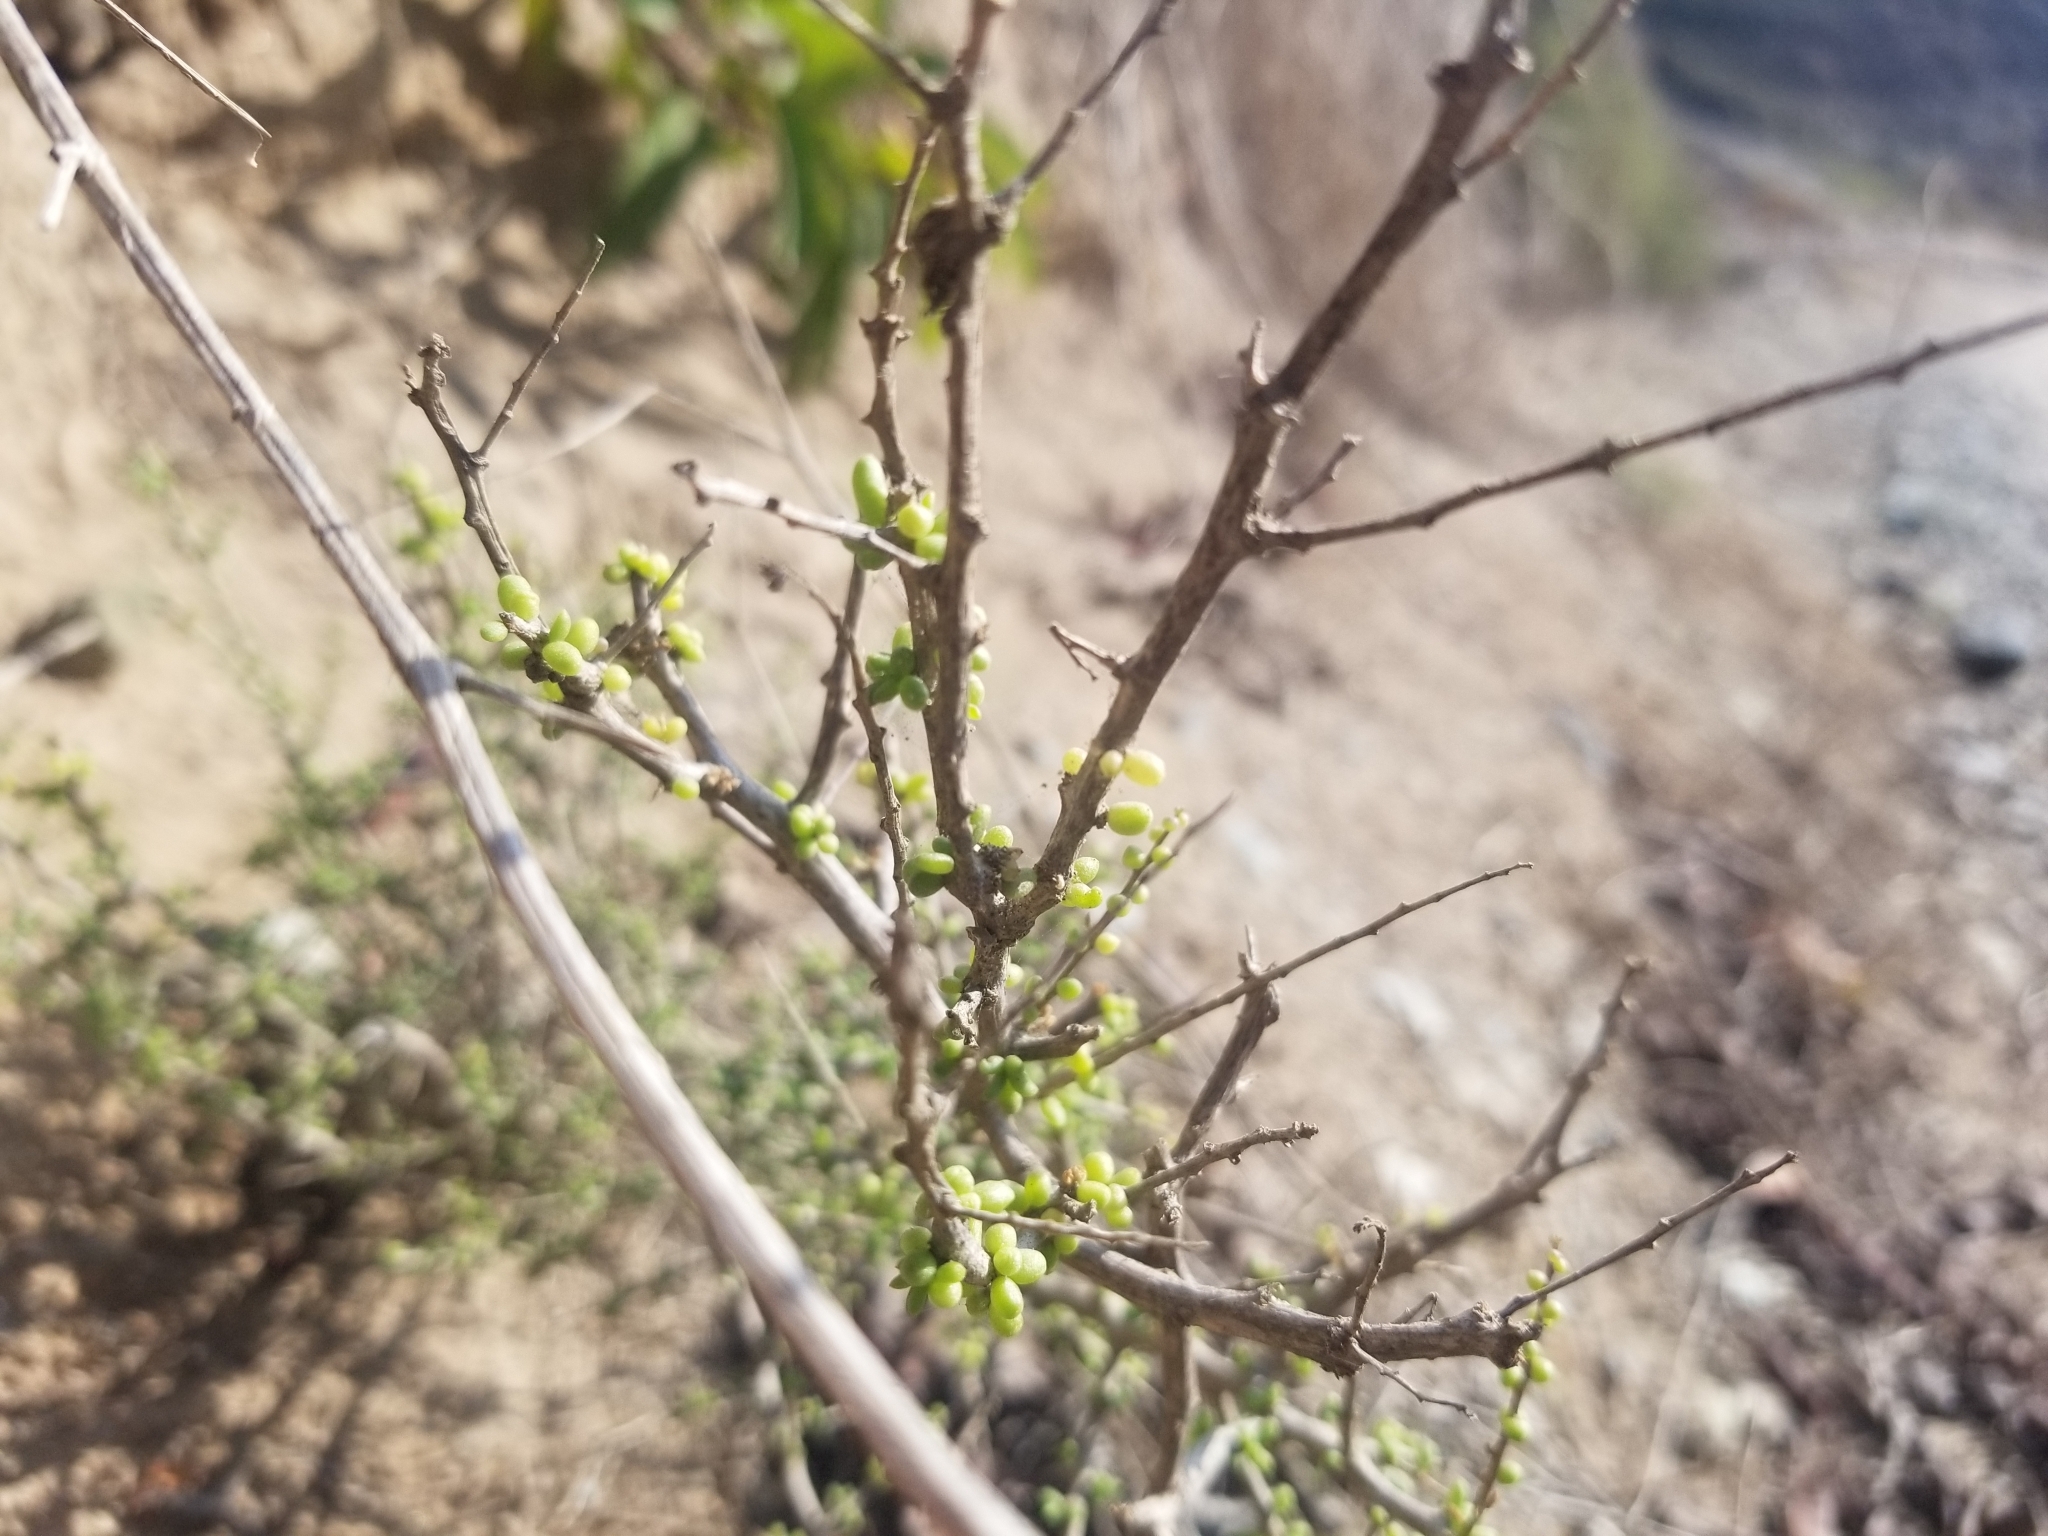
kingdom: Plantae
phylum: Tracheophyta
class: Magnoliopsida
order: Solanales
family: Solanaceae
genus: Lycium
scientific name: Lycium californicum
